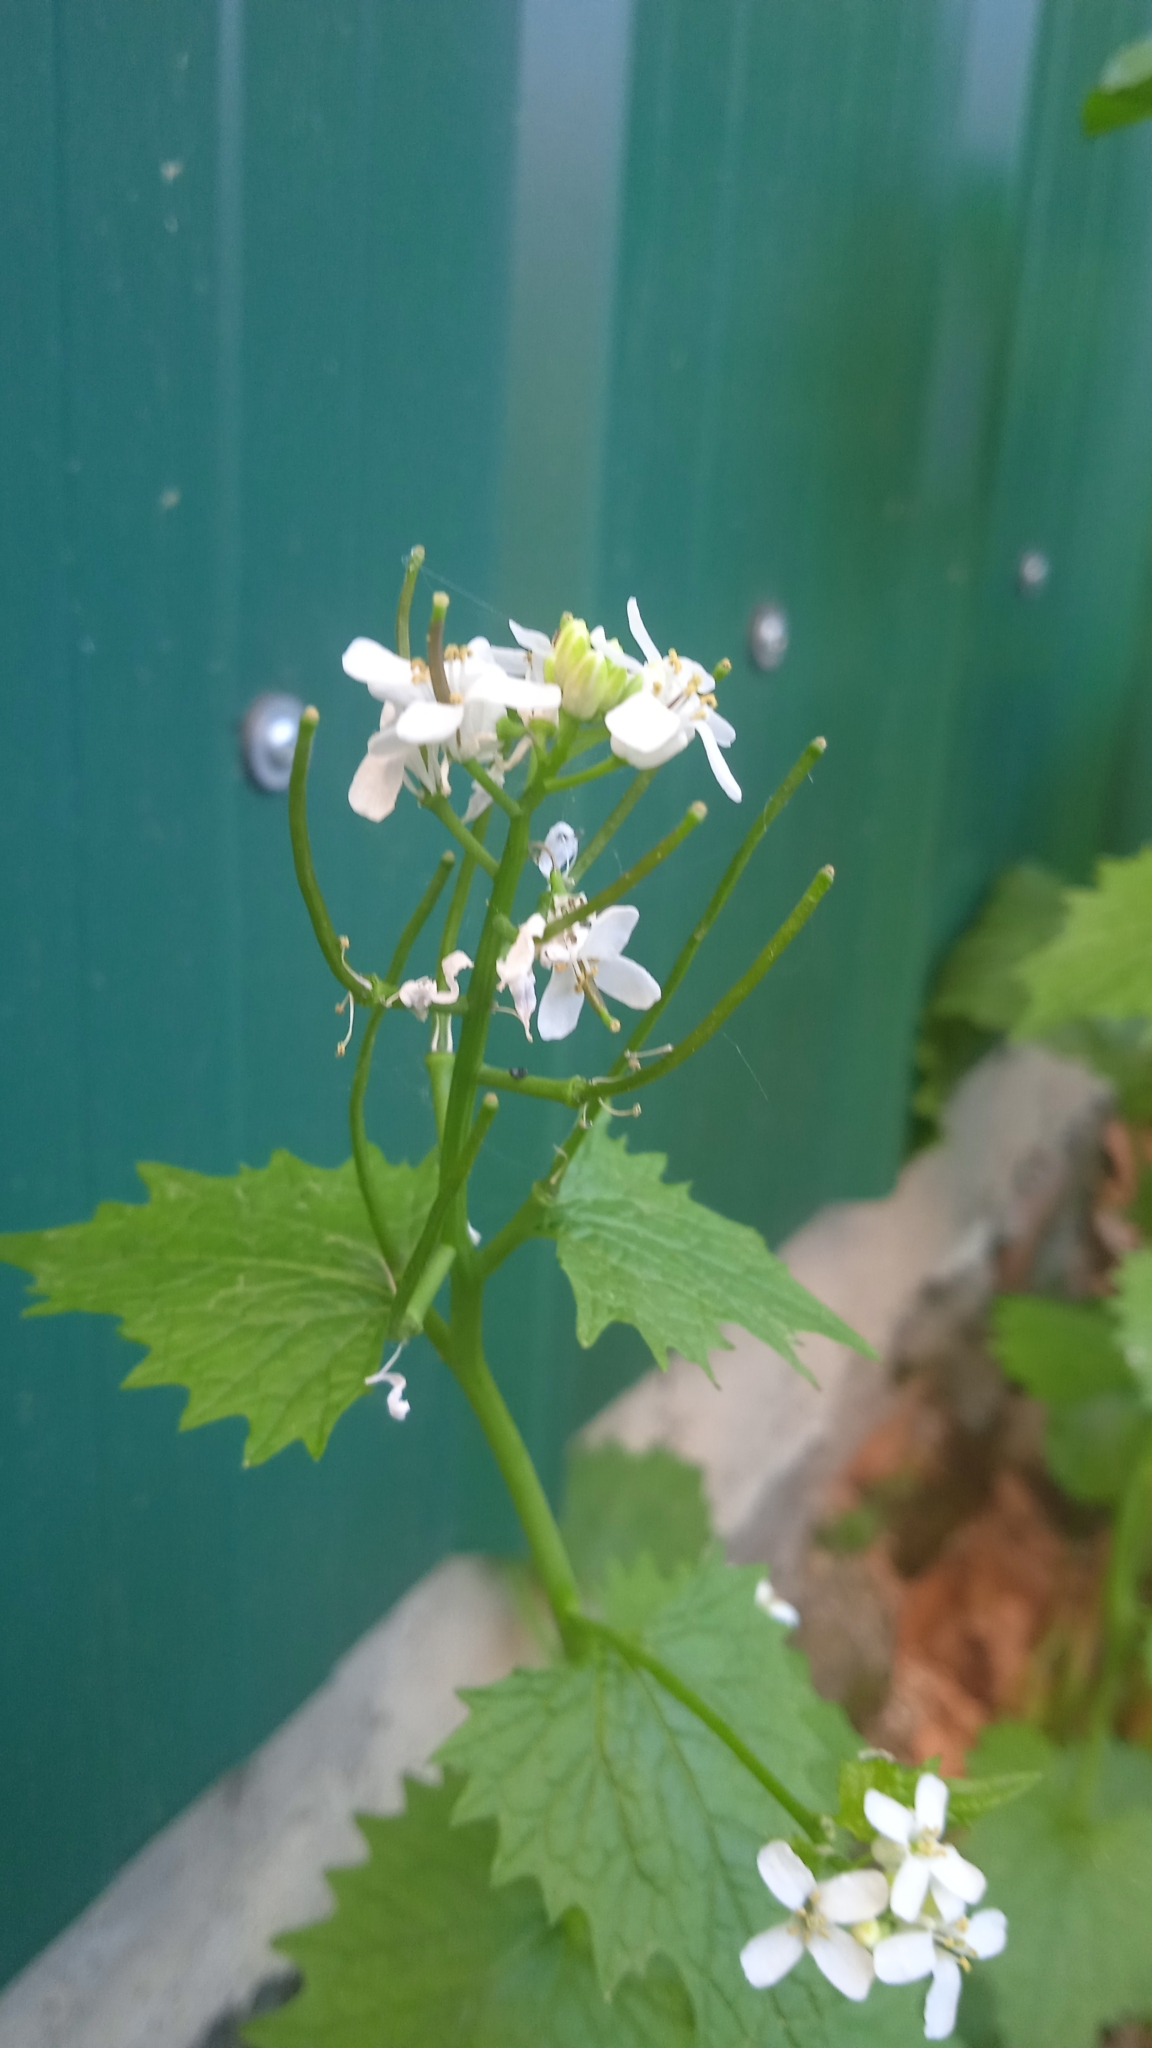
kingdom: Plantae
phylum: Tracheophyta
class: Magnoliopsida
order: Brassicales
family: Brassicaceae
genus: Alliaria
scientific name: Alliaria petiolata
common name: Garlic mustard
